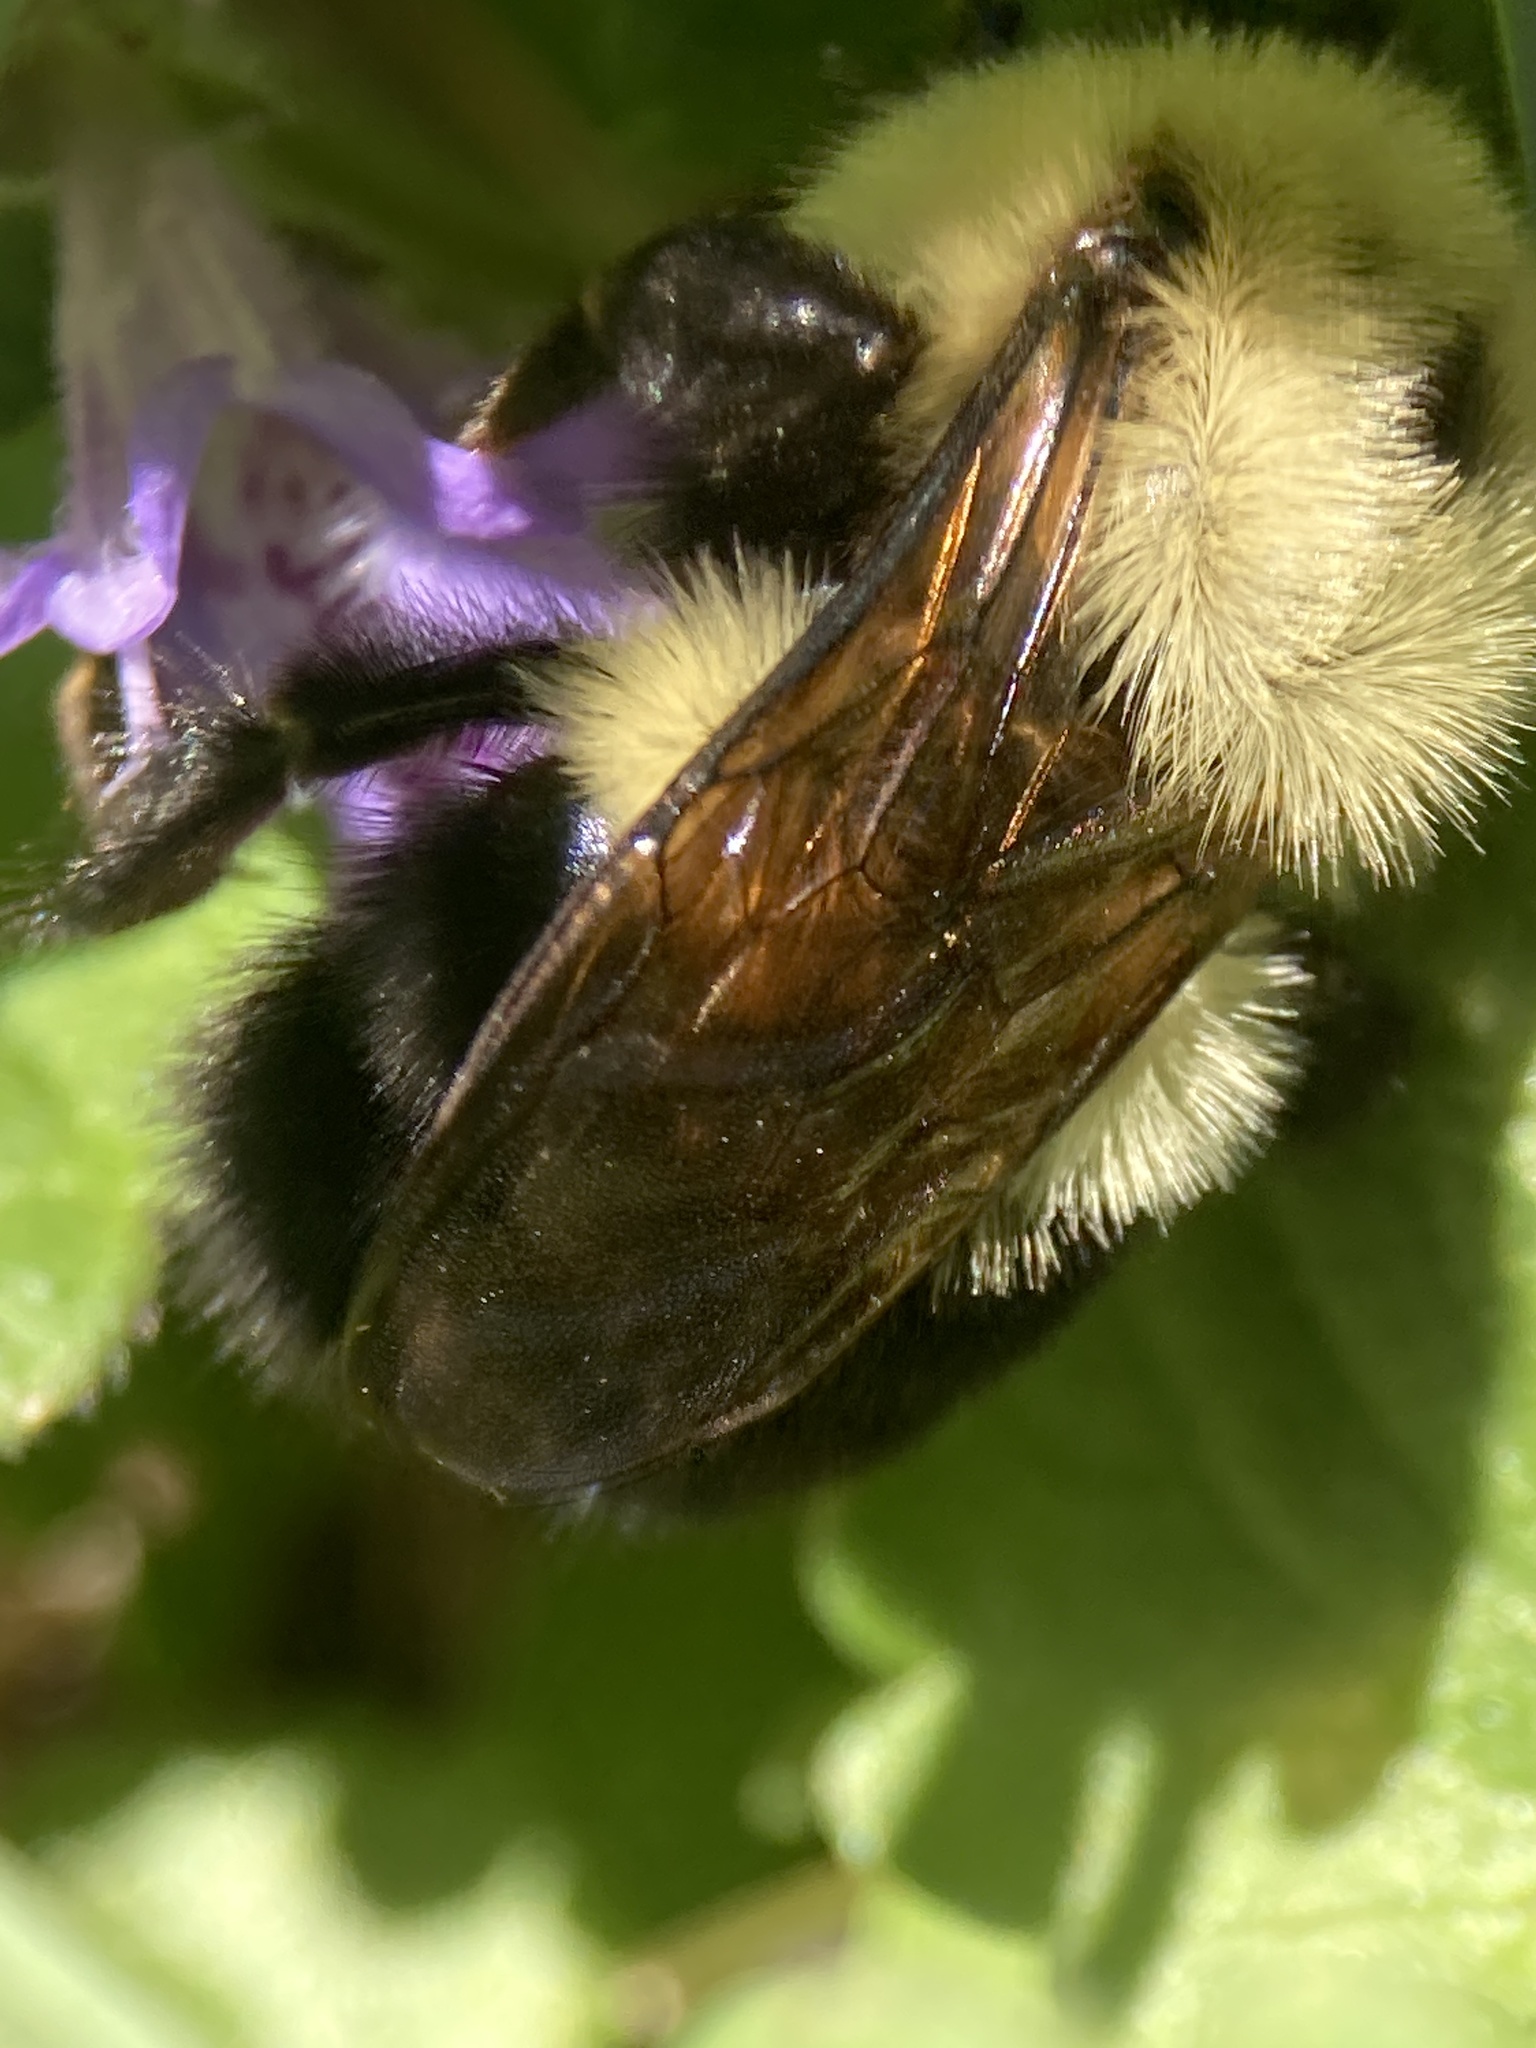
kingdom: Animalia
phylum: Arthropoda
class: Insecta
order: Hymenoptera
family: Apidae
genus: Bombus
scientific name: Bombus bimaculatus
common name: Two-spotted bumble bee
